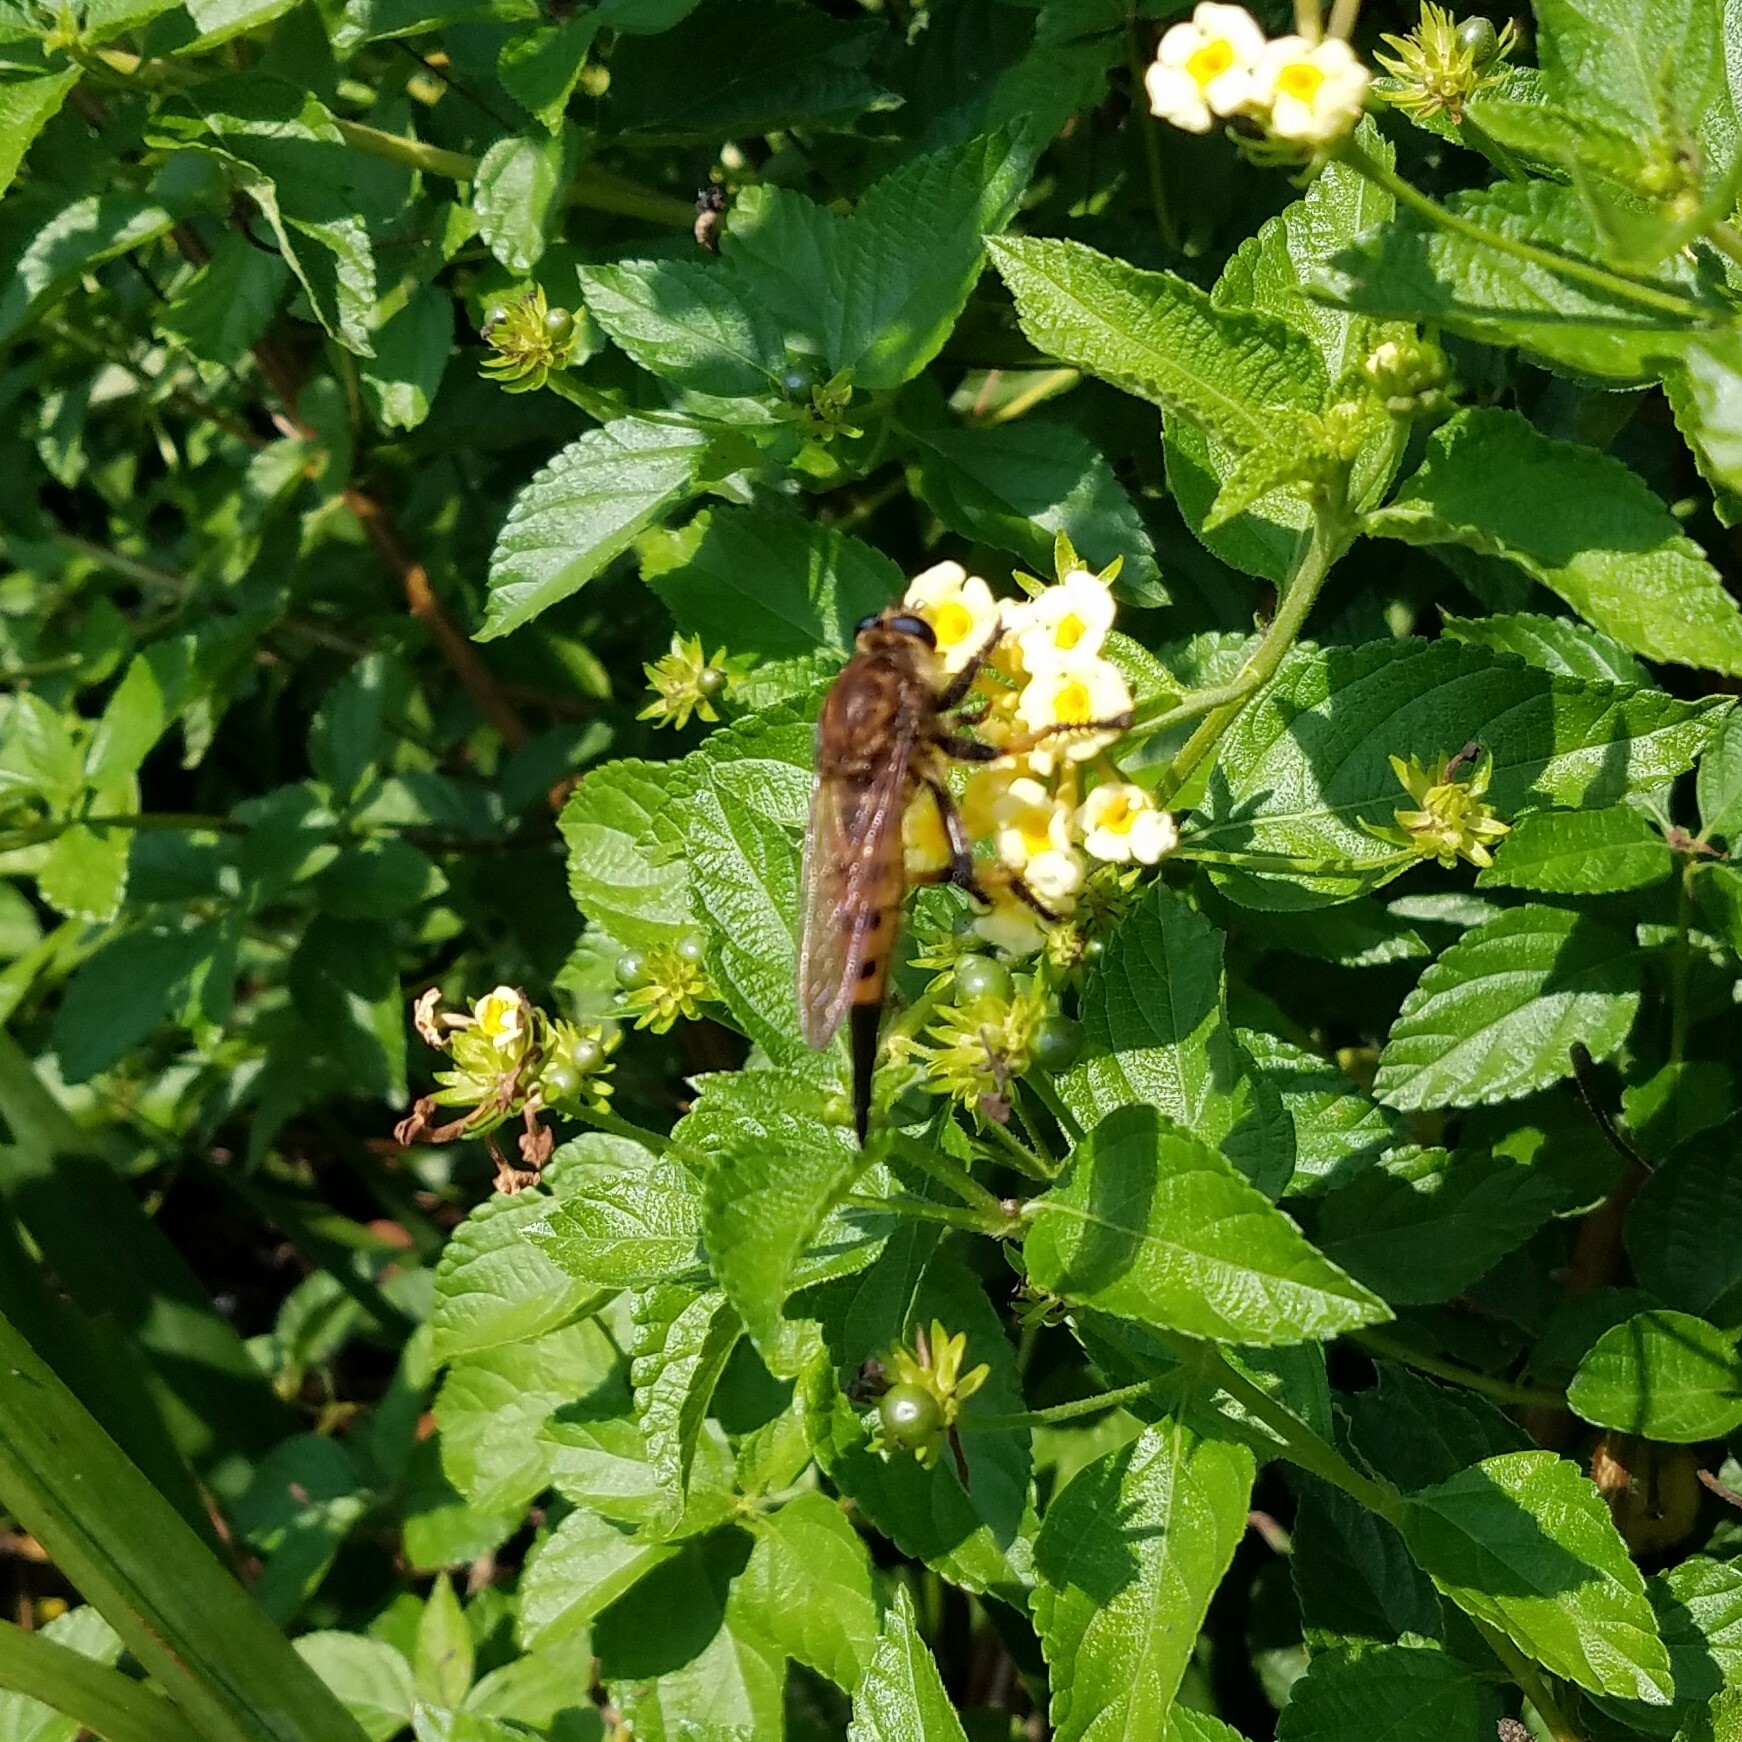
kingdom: Animalia
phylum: Arthropoda
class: Insecta
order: Diptera
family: Asilidae
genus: Promachus
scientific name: Promachus rufipes
